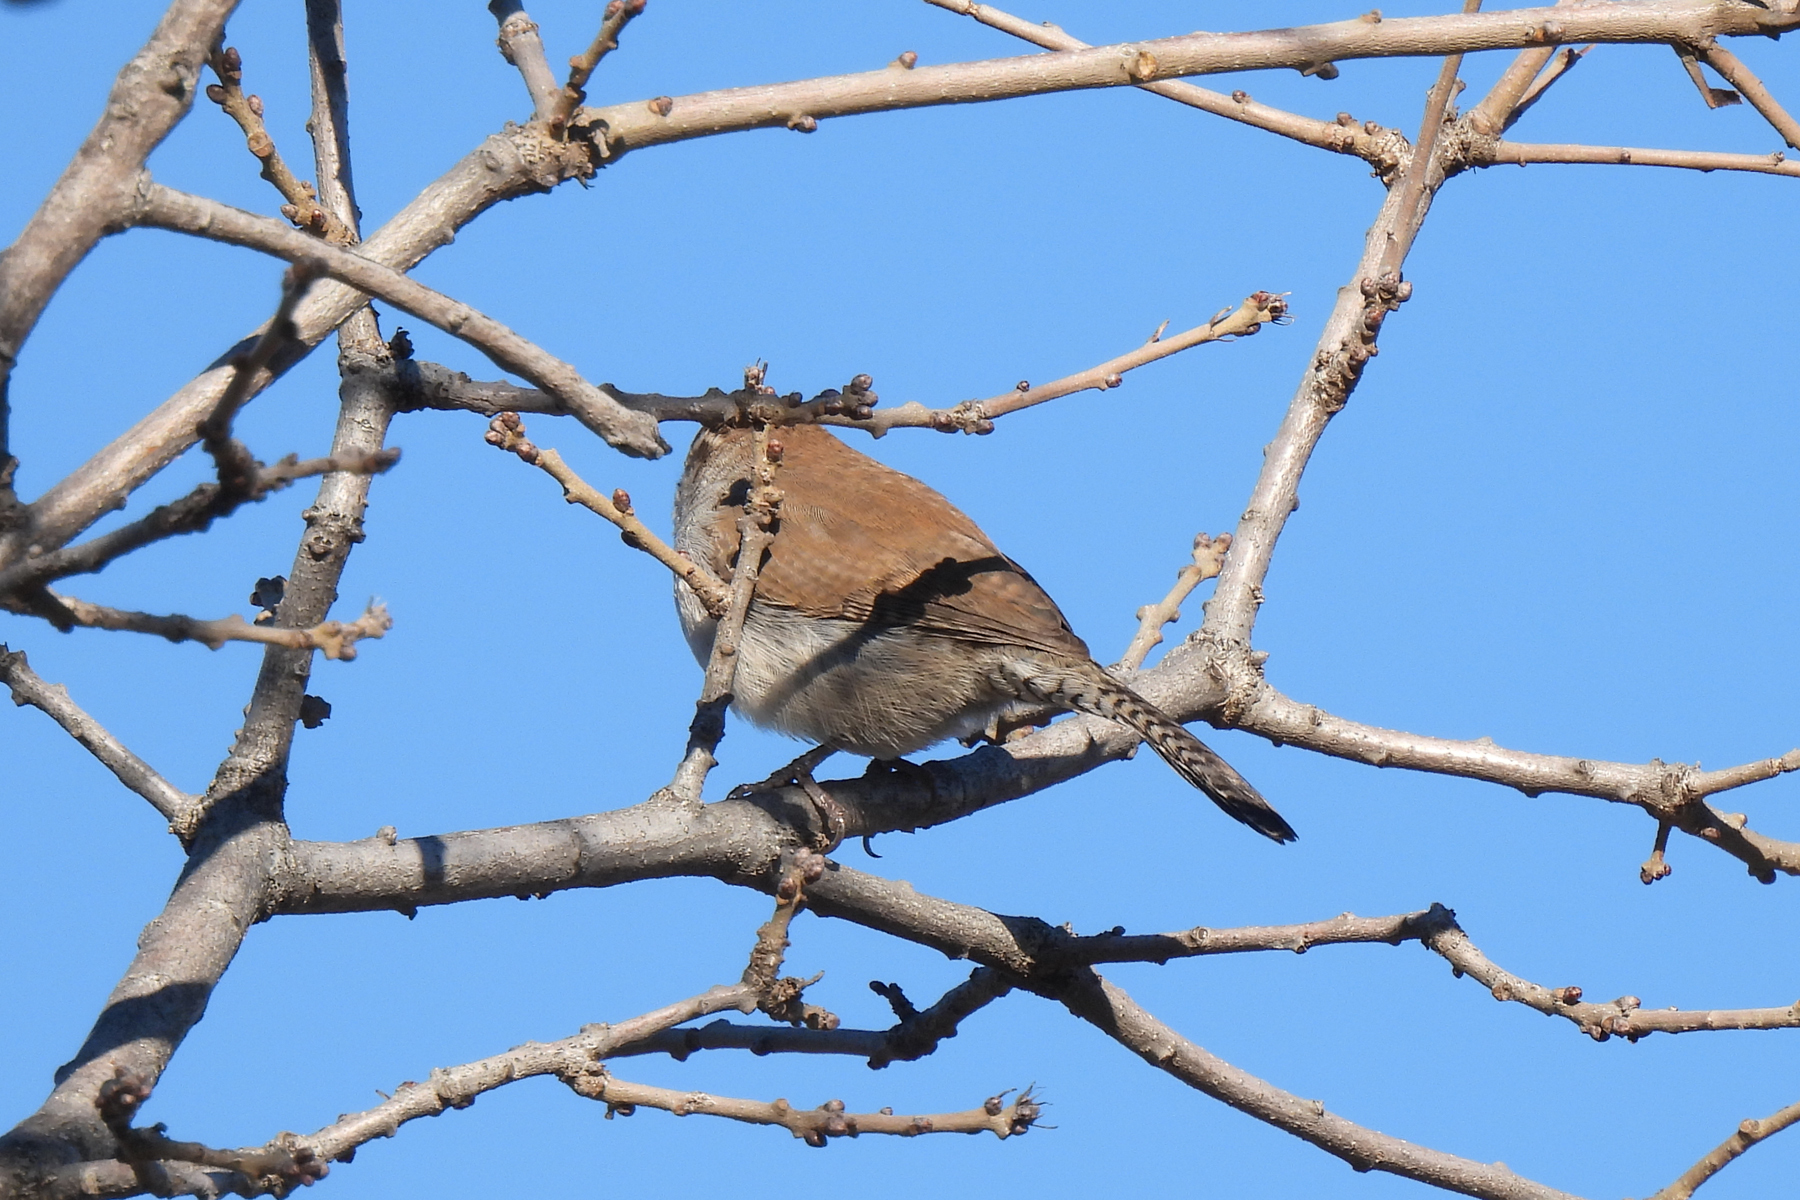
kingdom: Animalia
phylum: Chordata
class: Aves
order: Passeriformes
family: Troglodytidae
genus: Thryomanes
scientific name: Thryomanes bewickii
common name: Bewick's wren
